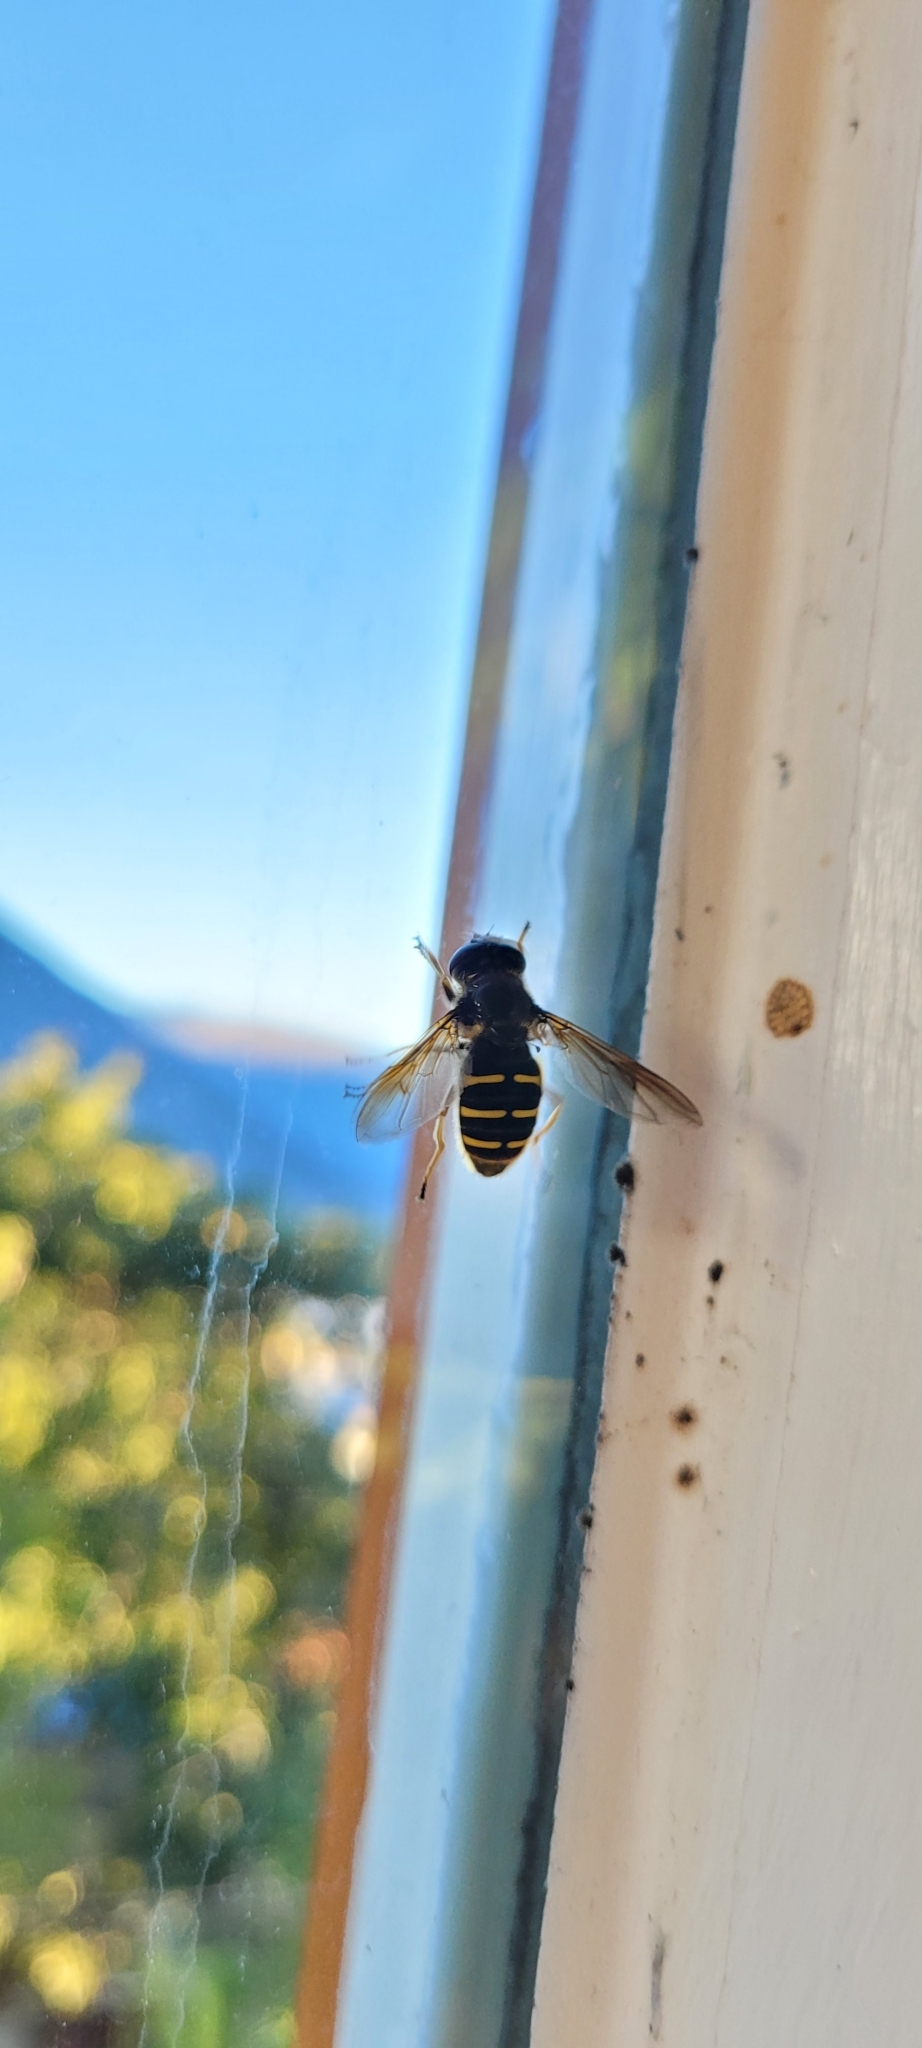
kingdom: Animalia
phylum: Arthropoda
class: Insecta
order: Diptera
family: Syrphidae
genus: Sericomyia
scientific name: Sericomyia chalcopyga
